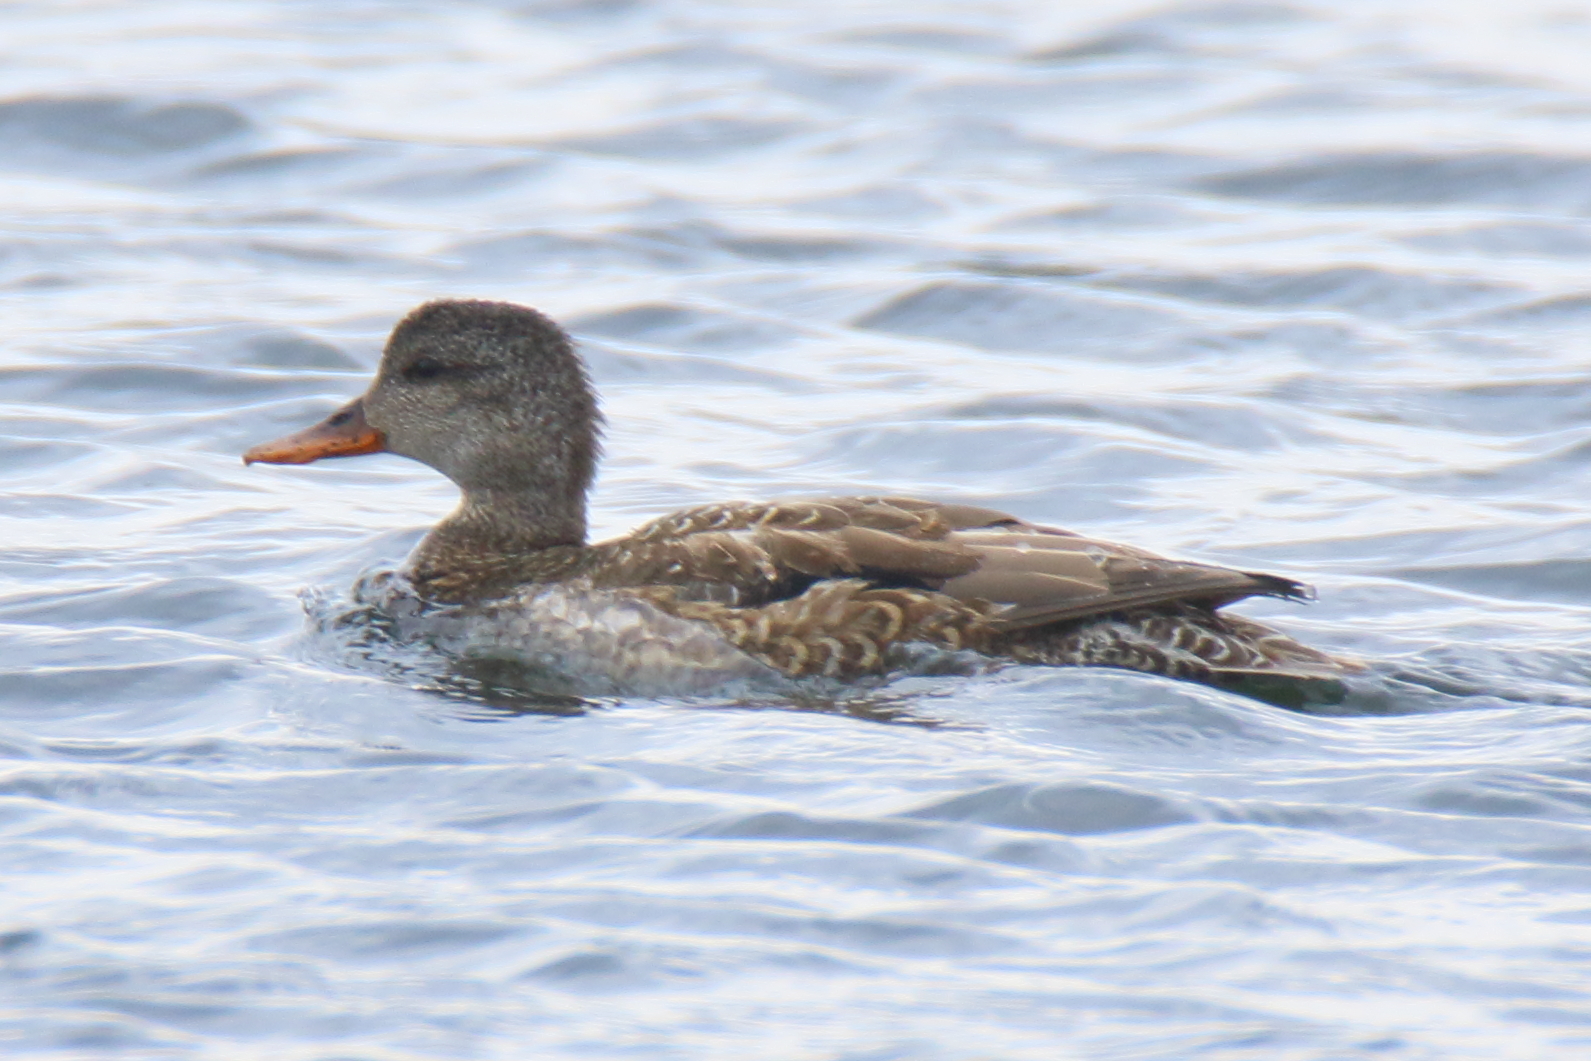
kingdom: Animalia
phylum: Chordata
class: Aves
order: Anseriformes
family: Anatidae
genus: Mareca
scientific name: Mareca strepera
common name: Gadwall
